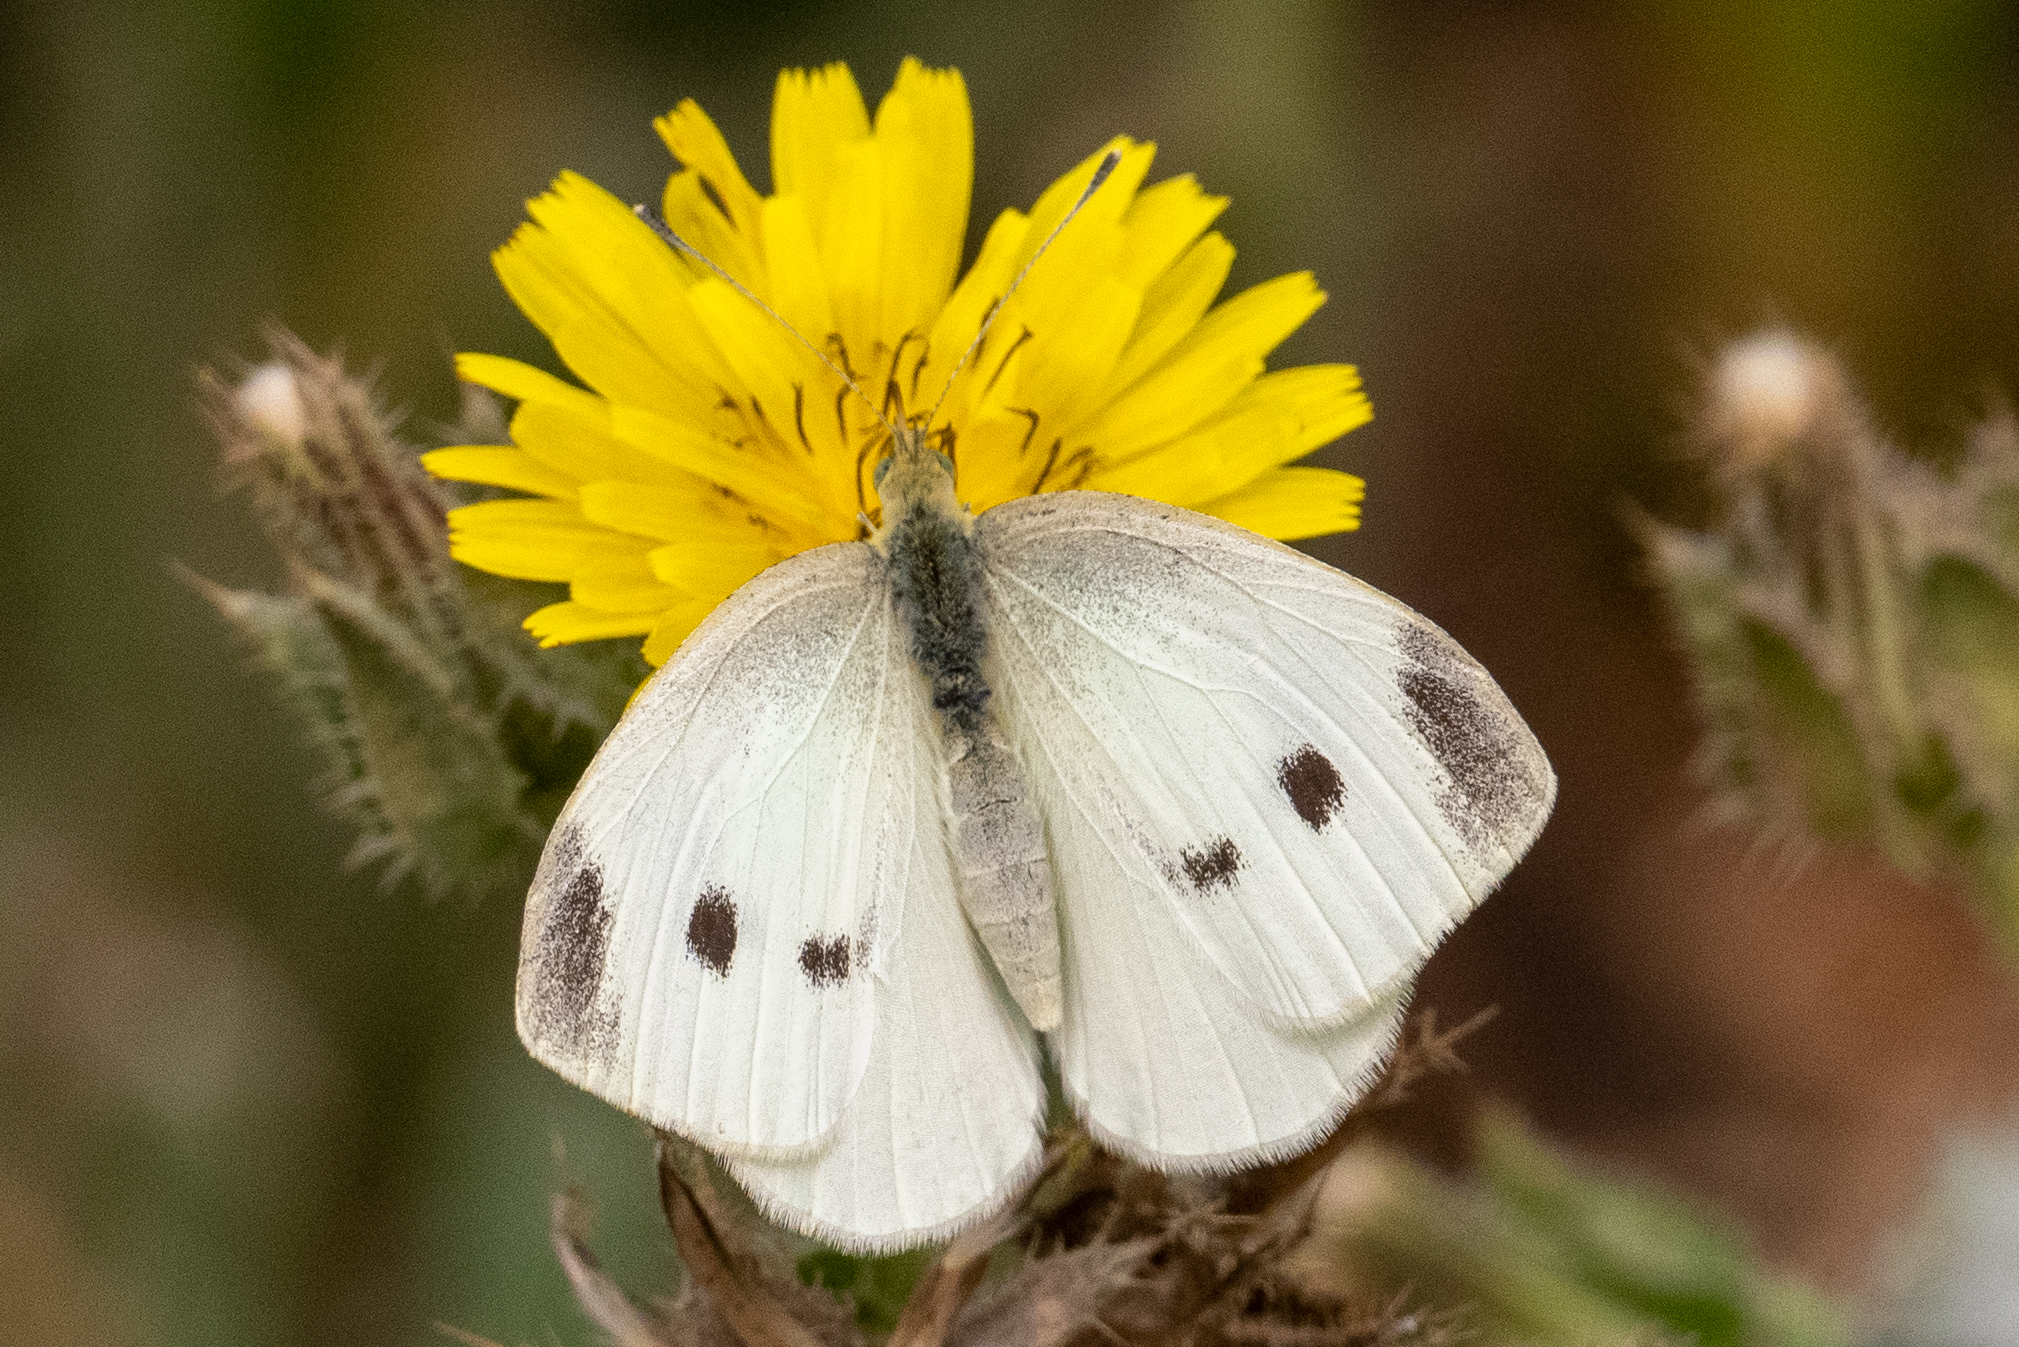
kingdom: Animalia
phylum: Arthropoda
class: Insecta
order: Lepidoptera
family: Pieridae
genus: Pieris
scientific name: Pieris rapae
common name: Small white
